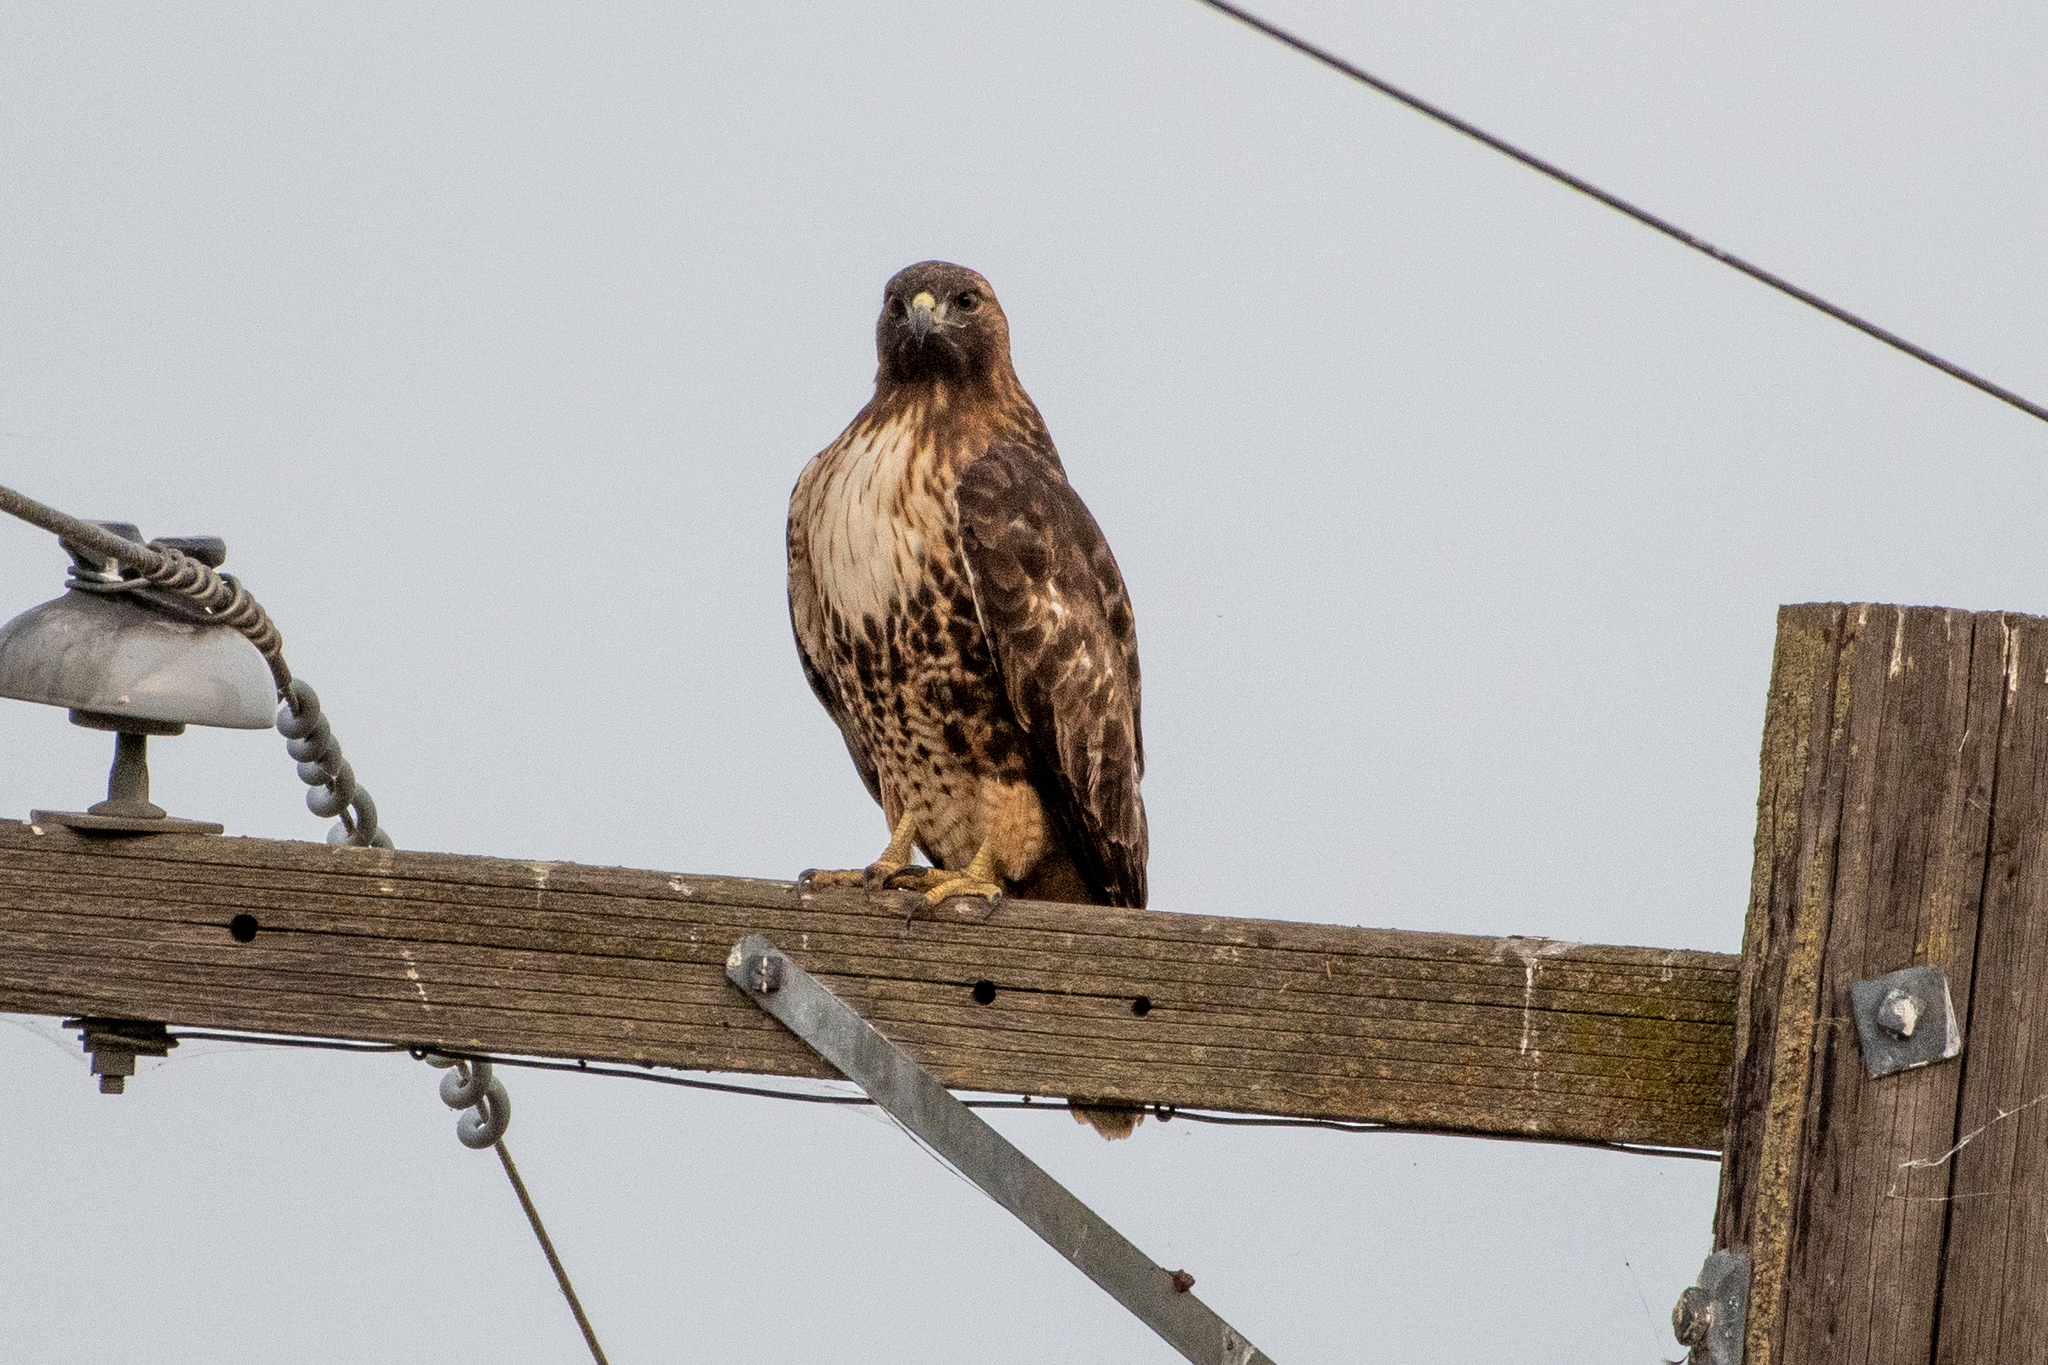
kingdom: Animalia
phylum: Chordata
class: Aves
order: Accipitriformes
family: Accipitridae
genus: Buteo
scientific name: Buteo jamaicensis
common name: Red-tailed hawk
